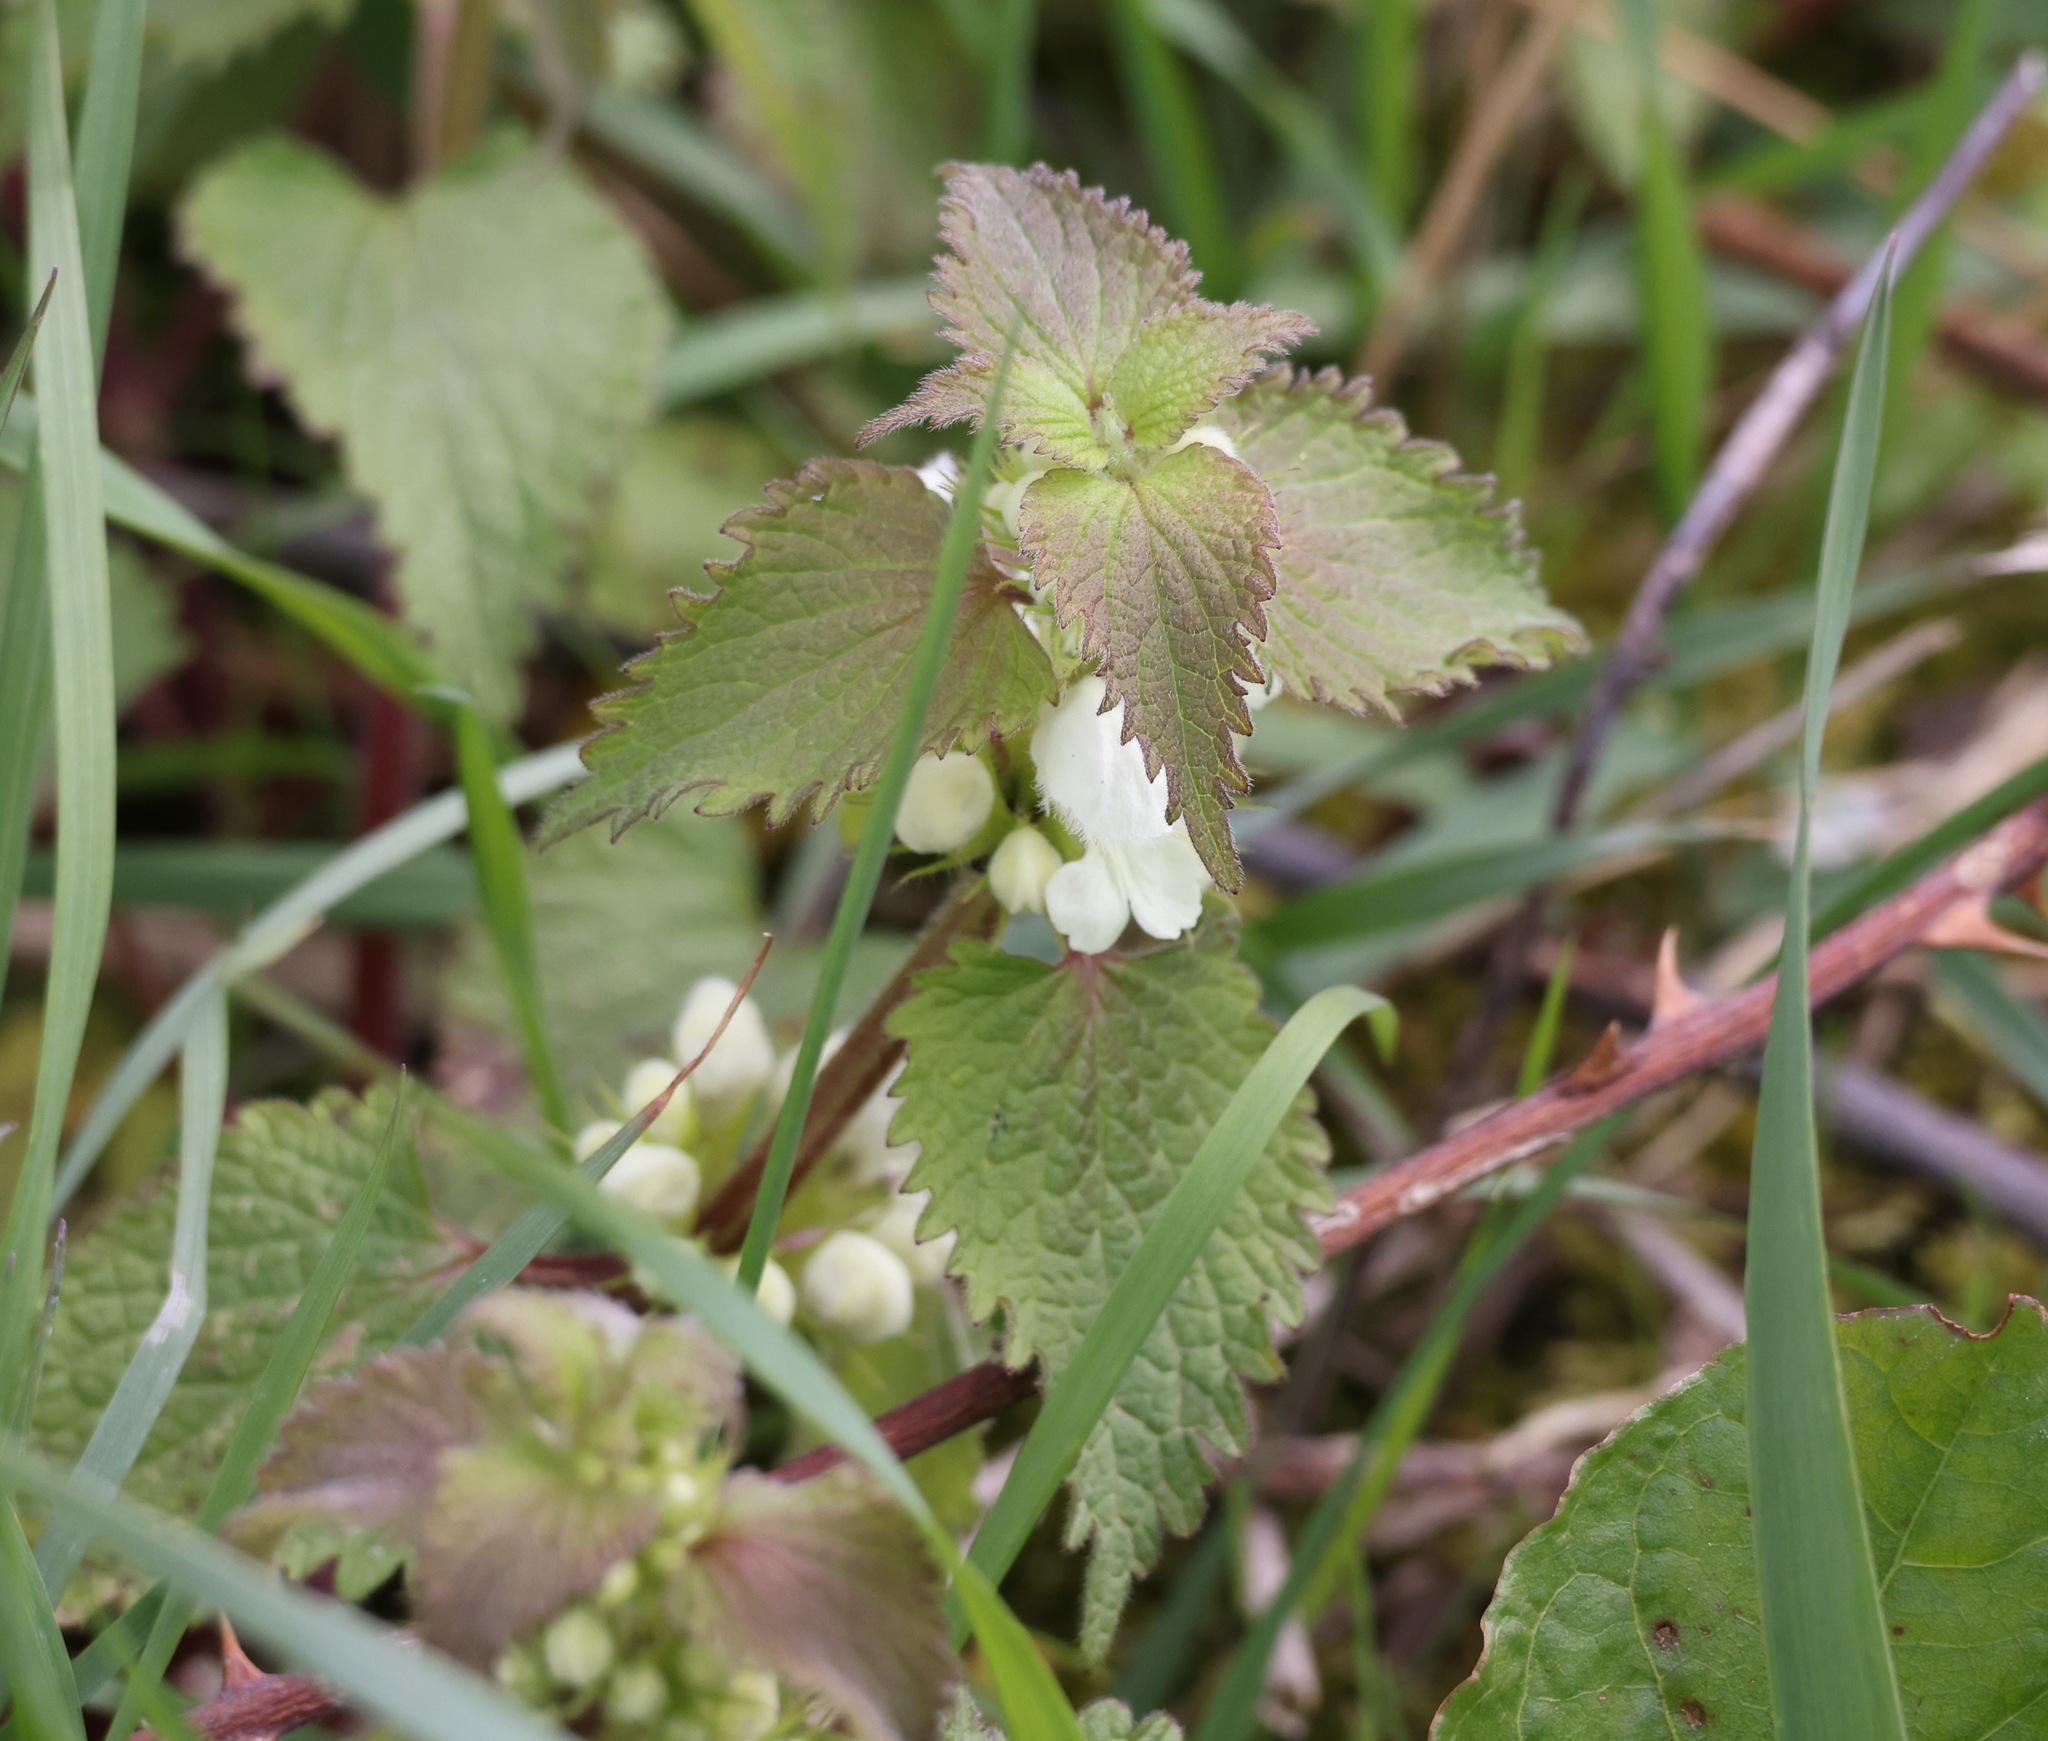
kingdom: Plantae
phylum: Tracheophyta
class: Magnoliopsida
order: Lamiales
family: Lamiaceae
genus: Lamium
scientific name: Lamium album
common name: White dead-nettle
